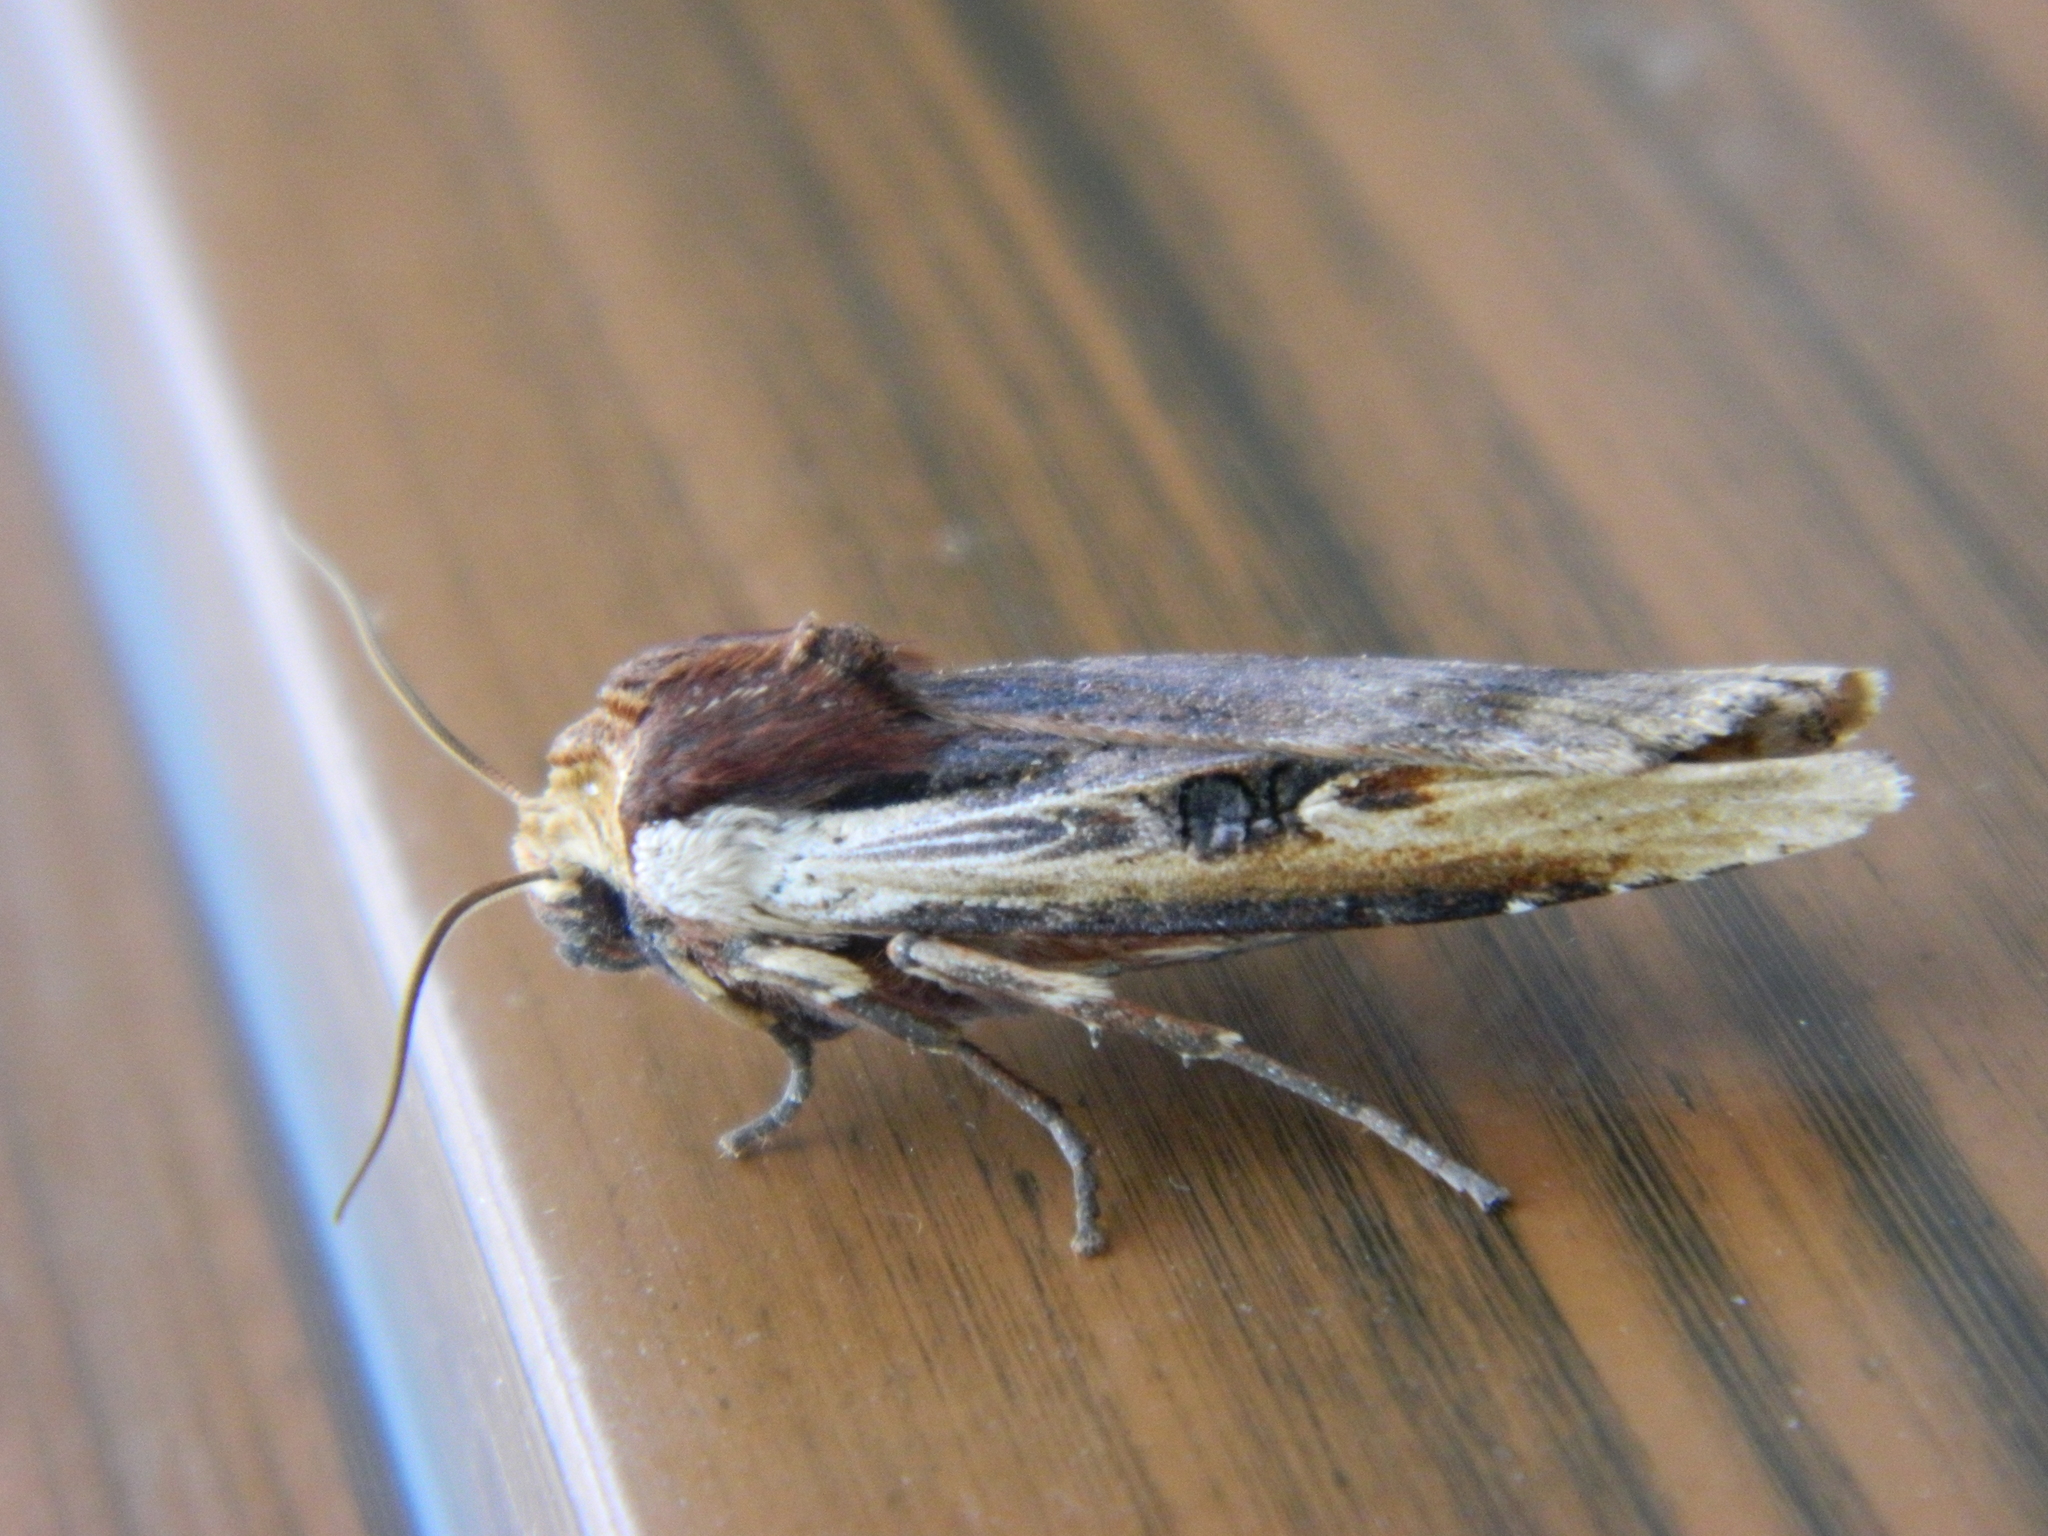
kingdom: Animalia
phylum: Arthropoda
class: Insecta
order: Lepidoptera
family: Noctuidae
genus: Xylena
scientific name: Xylena curvimacula
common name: Dot-and-dash swordgrass moth
